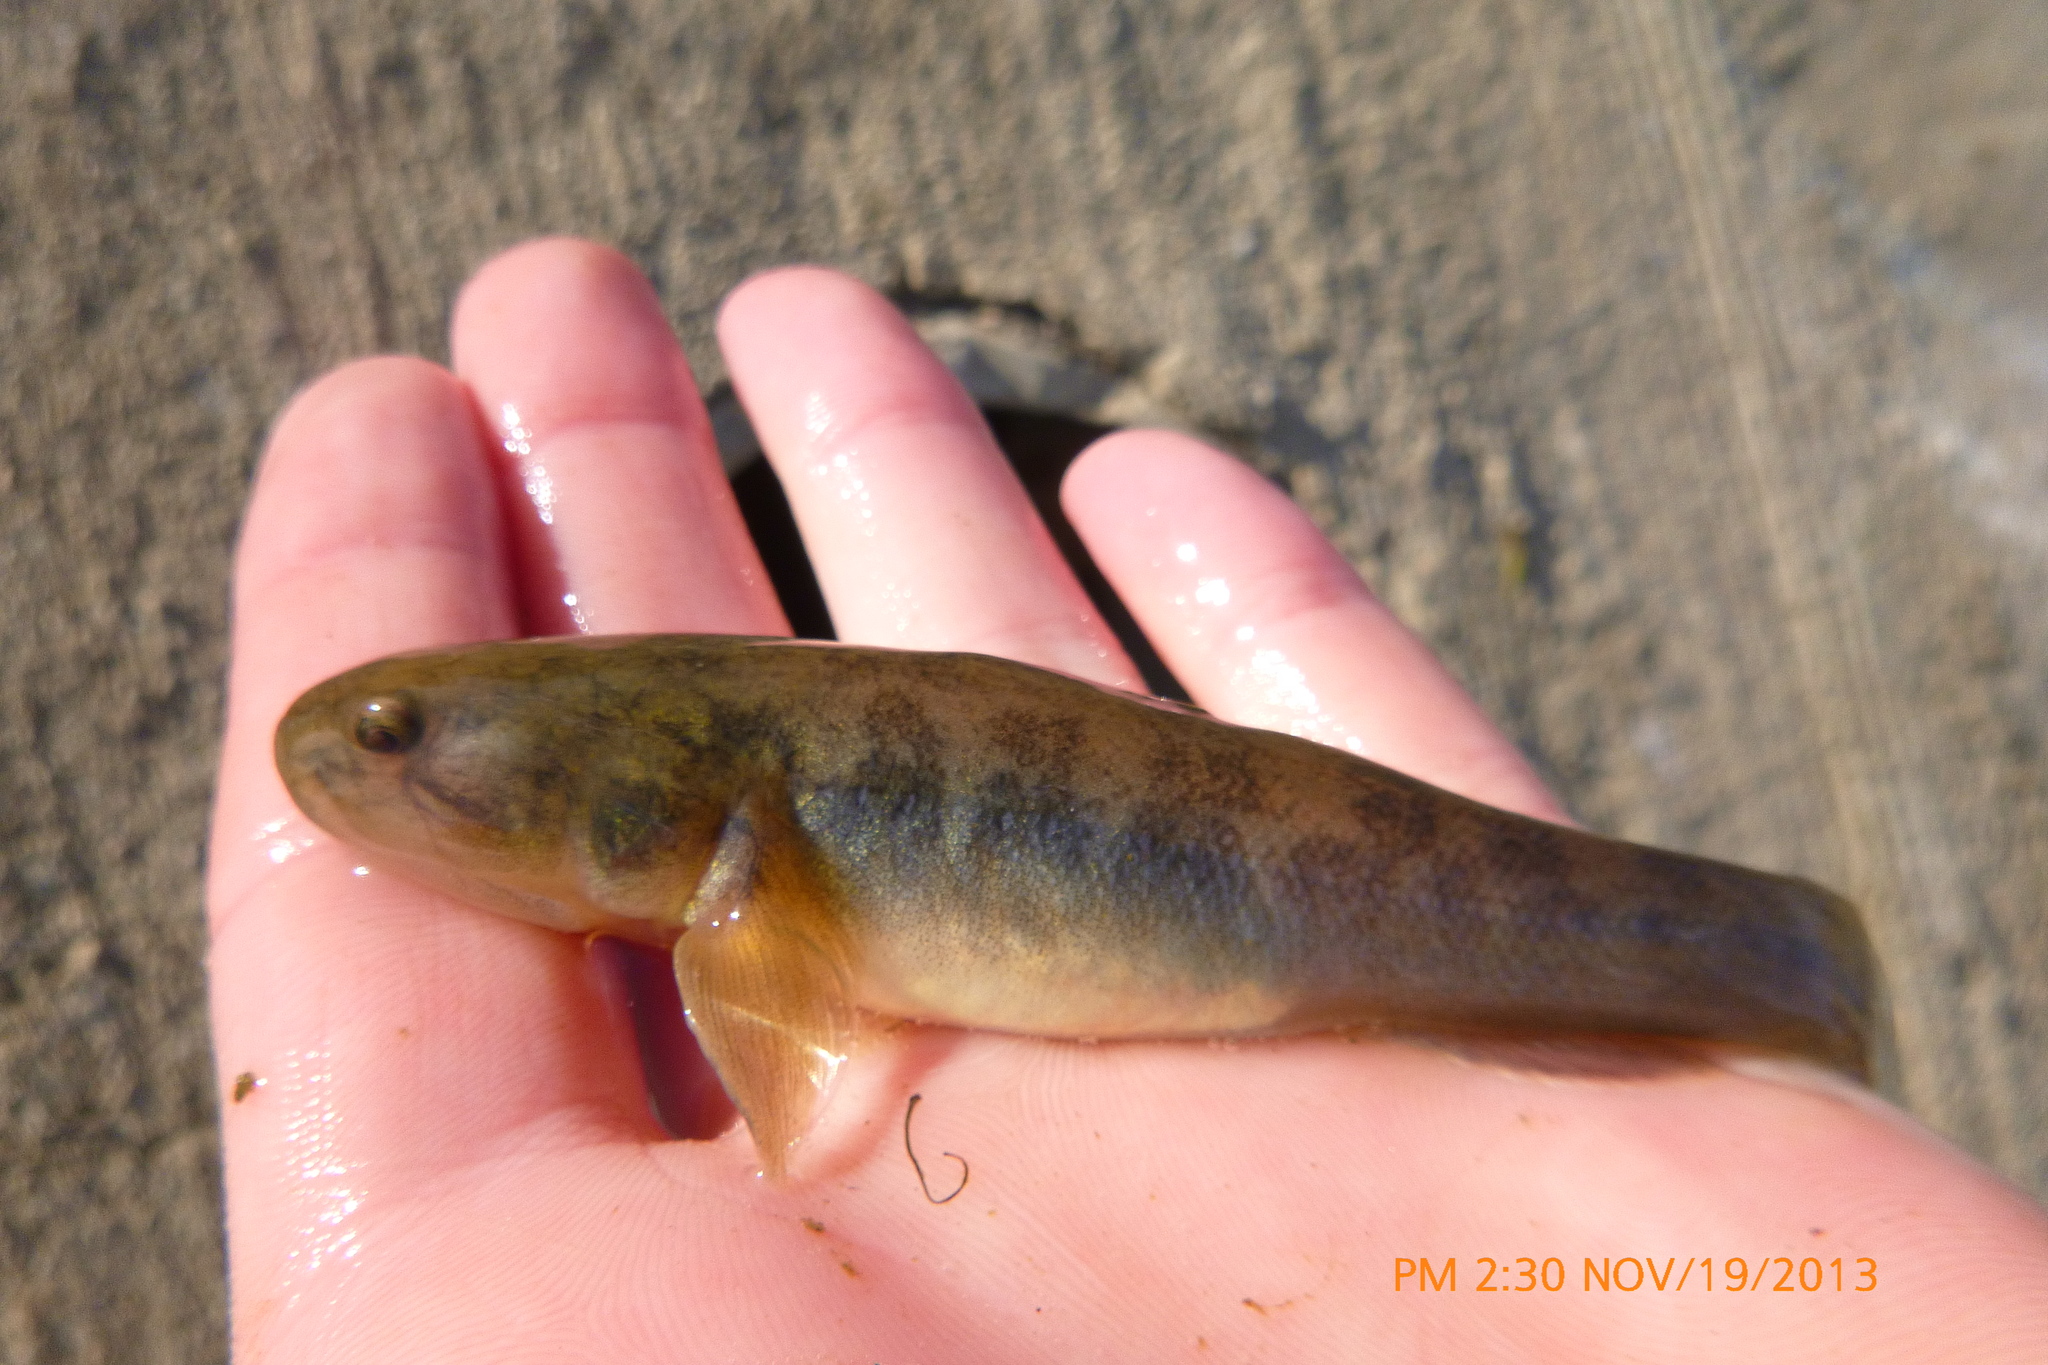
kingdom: Animalia
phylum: Chordata
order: Perciformes
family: Gobiidae
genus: Gillichthys
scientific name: Gillichthys mirabilis
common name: Longjaw mudsucker
